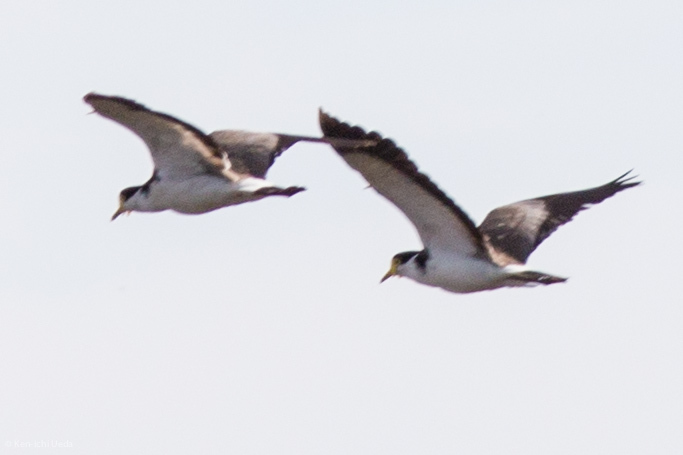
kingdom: Animalia
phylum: Chordata
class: Aves
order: Charadriiformes
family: Charadriidae
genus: Vanellus
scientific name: Vanellus miles
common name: Masked lapwing
